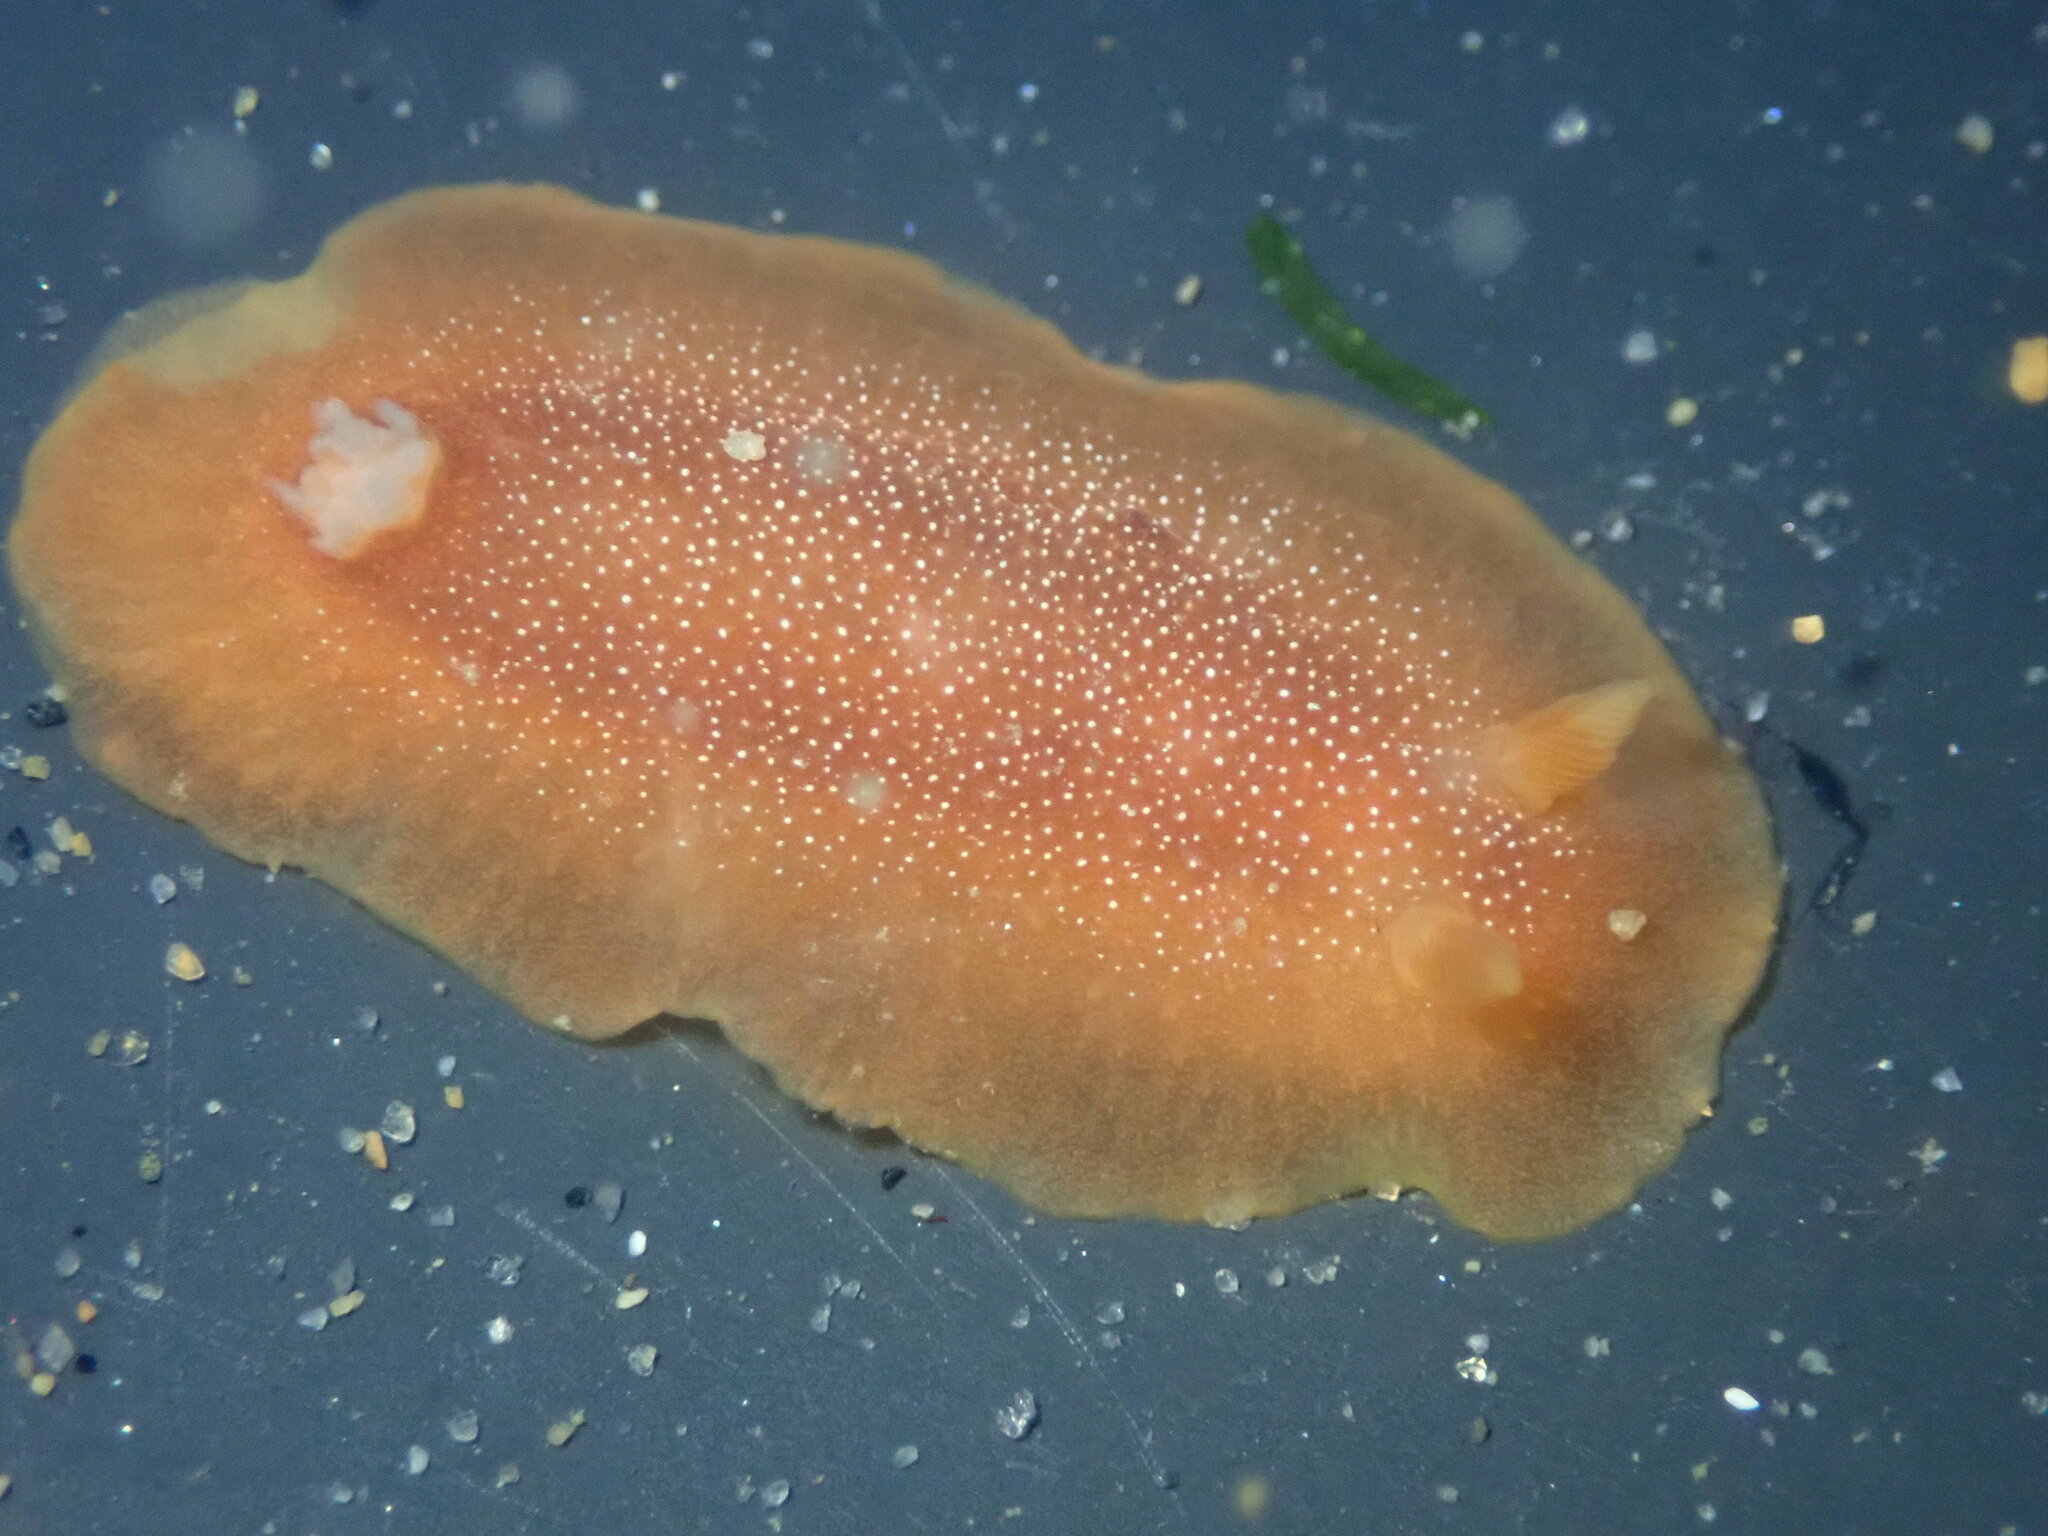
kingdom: Animalia
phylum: Mollusca
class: Gastropoda
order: Nudibranchia
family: Dendrodorididae
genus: Doriopsilla
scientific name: Doriopsilla albopunctata
